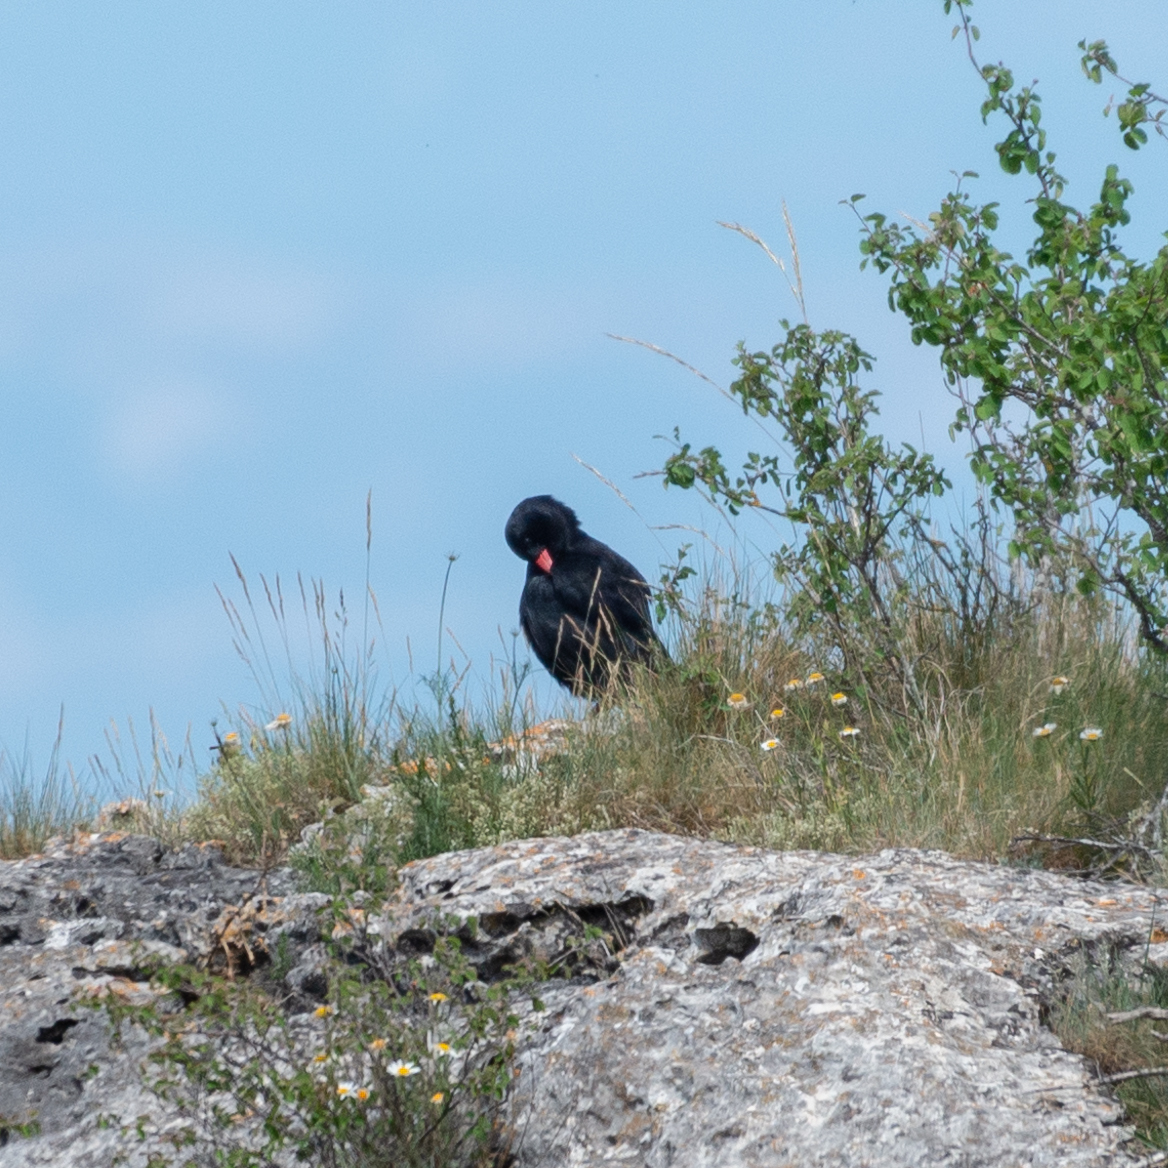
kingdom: Animalia
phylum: Chordata
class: Aves
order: Passeriformes
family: Corvidae
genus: Pyrrhocorax
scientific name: Pyrrhocorax pyrrhocorax
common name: Red-billed chough
